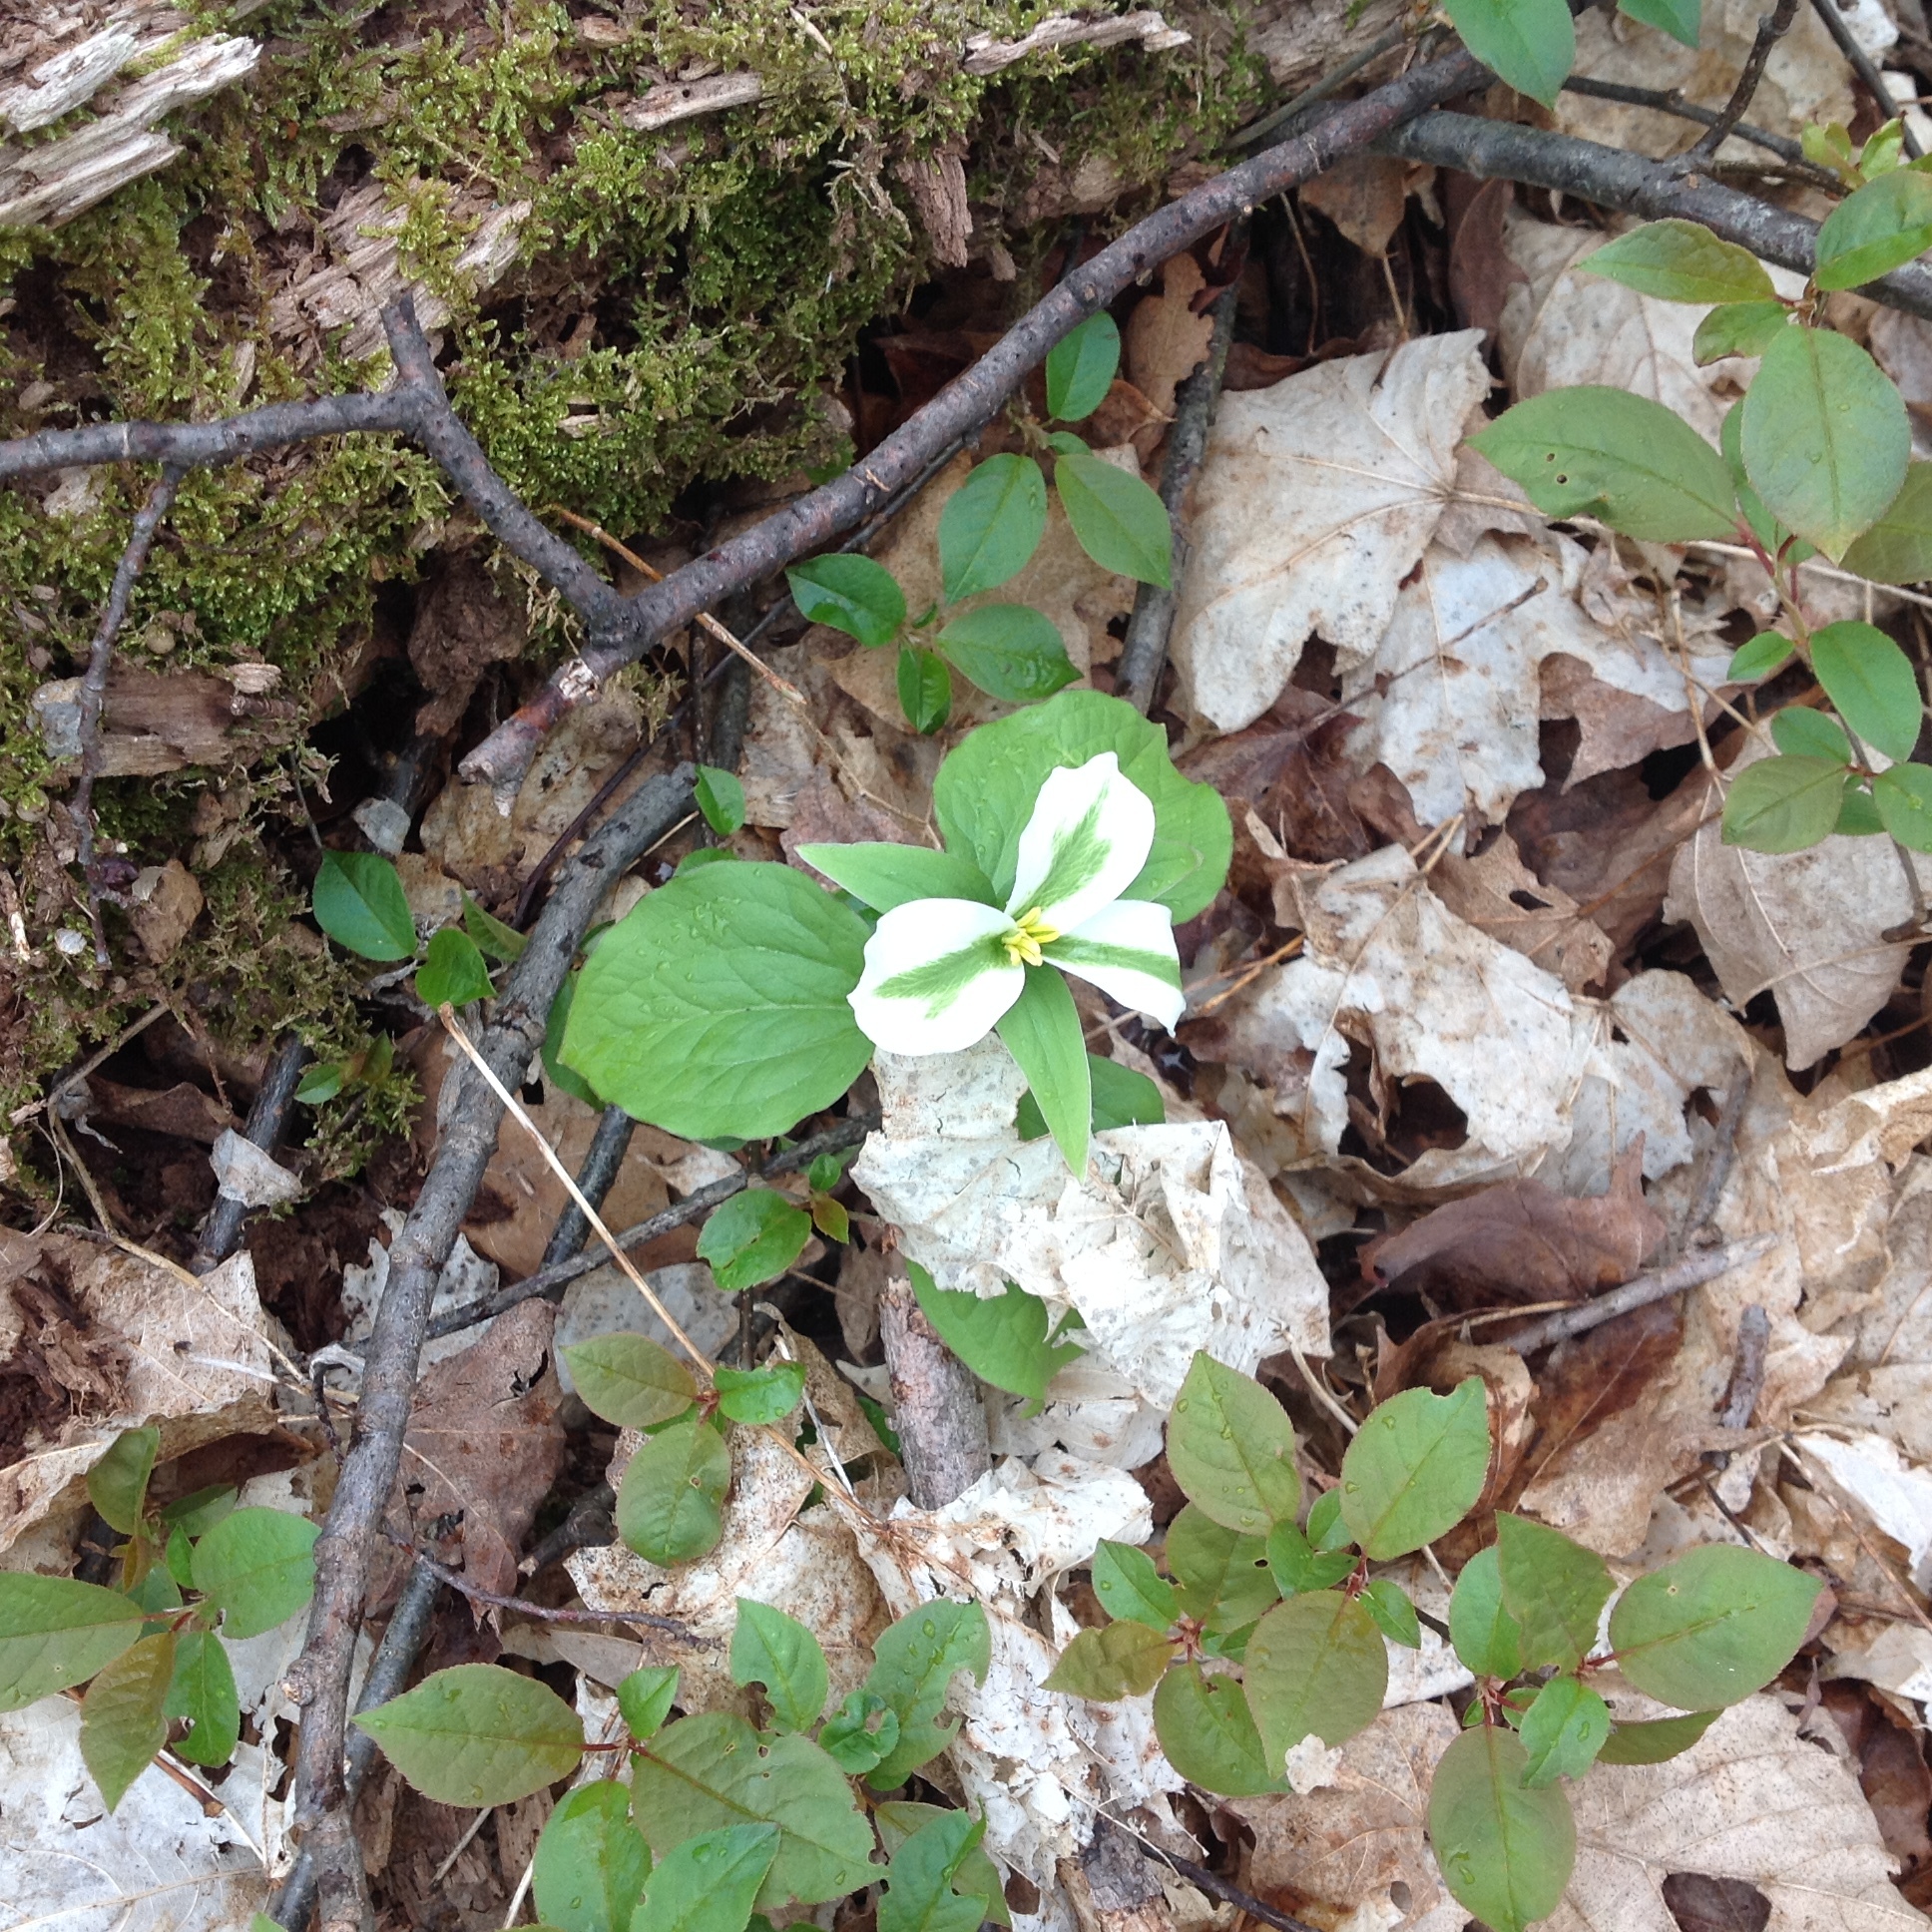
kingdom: Plantae
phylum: Tracheophyta
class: Liliopsida
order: Liliales
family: Melanthiaceae
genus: Trillium
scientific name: Trillium grandiflorum
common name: Great white trillium
